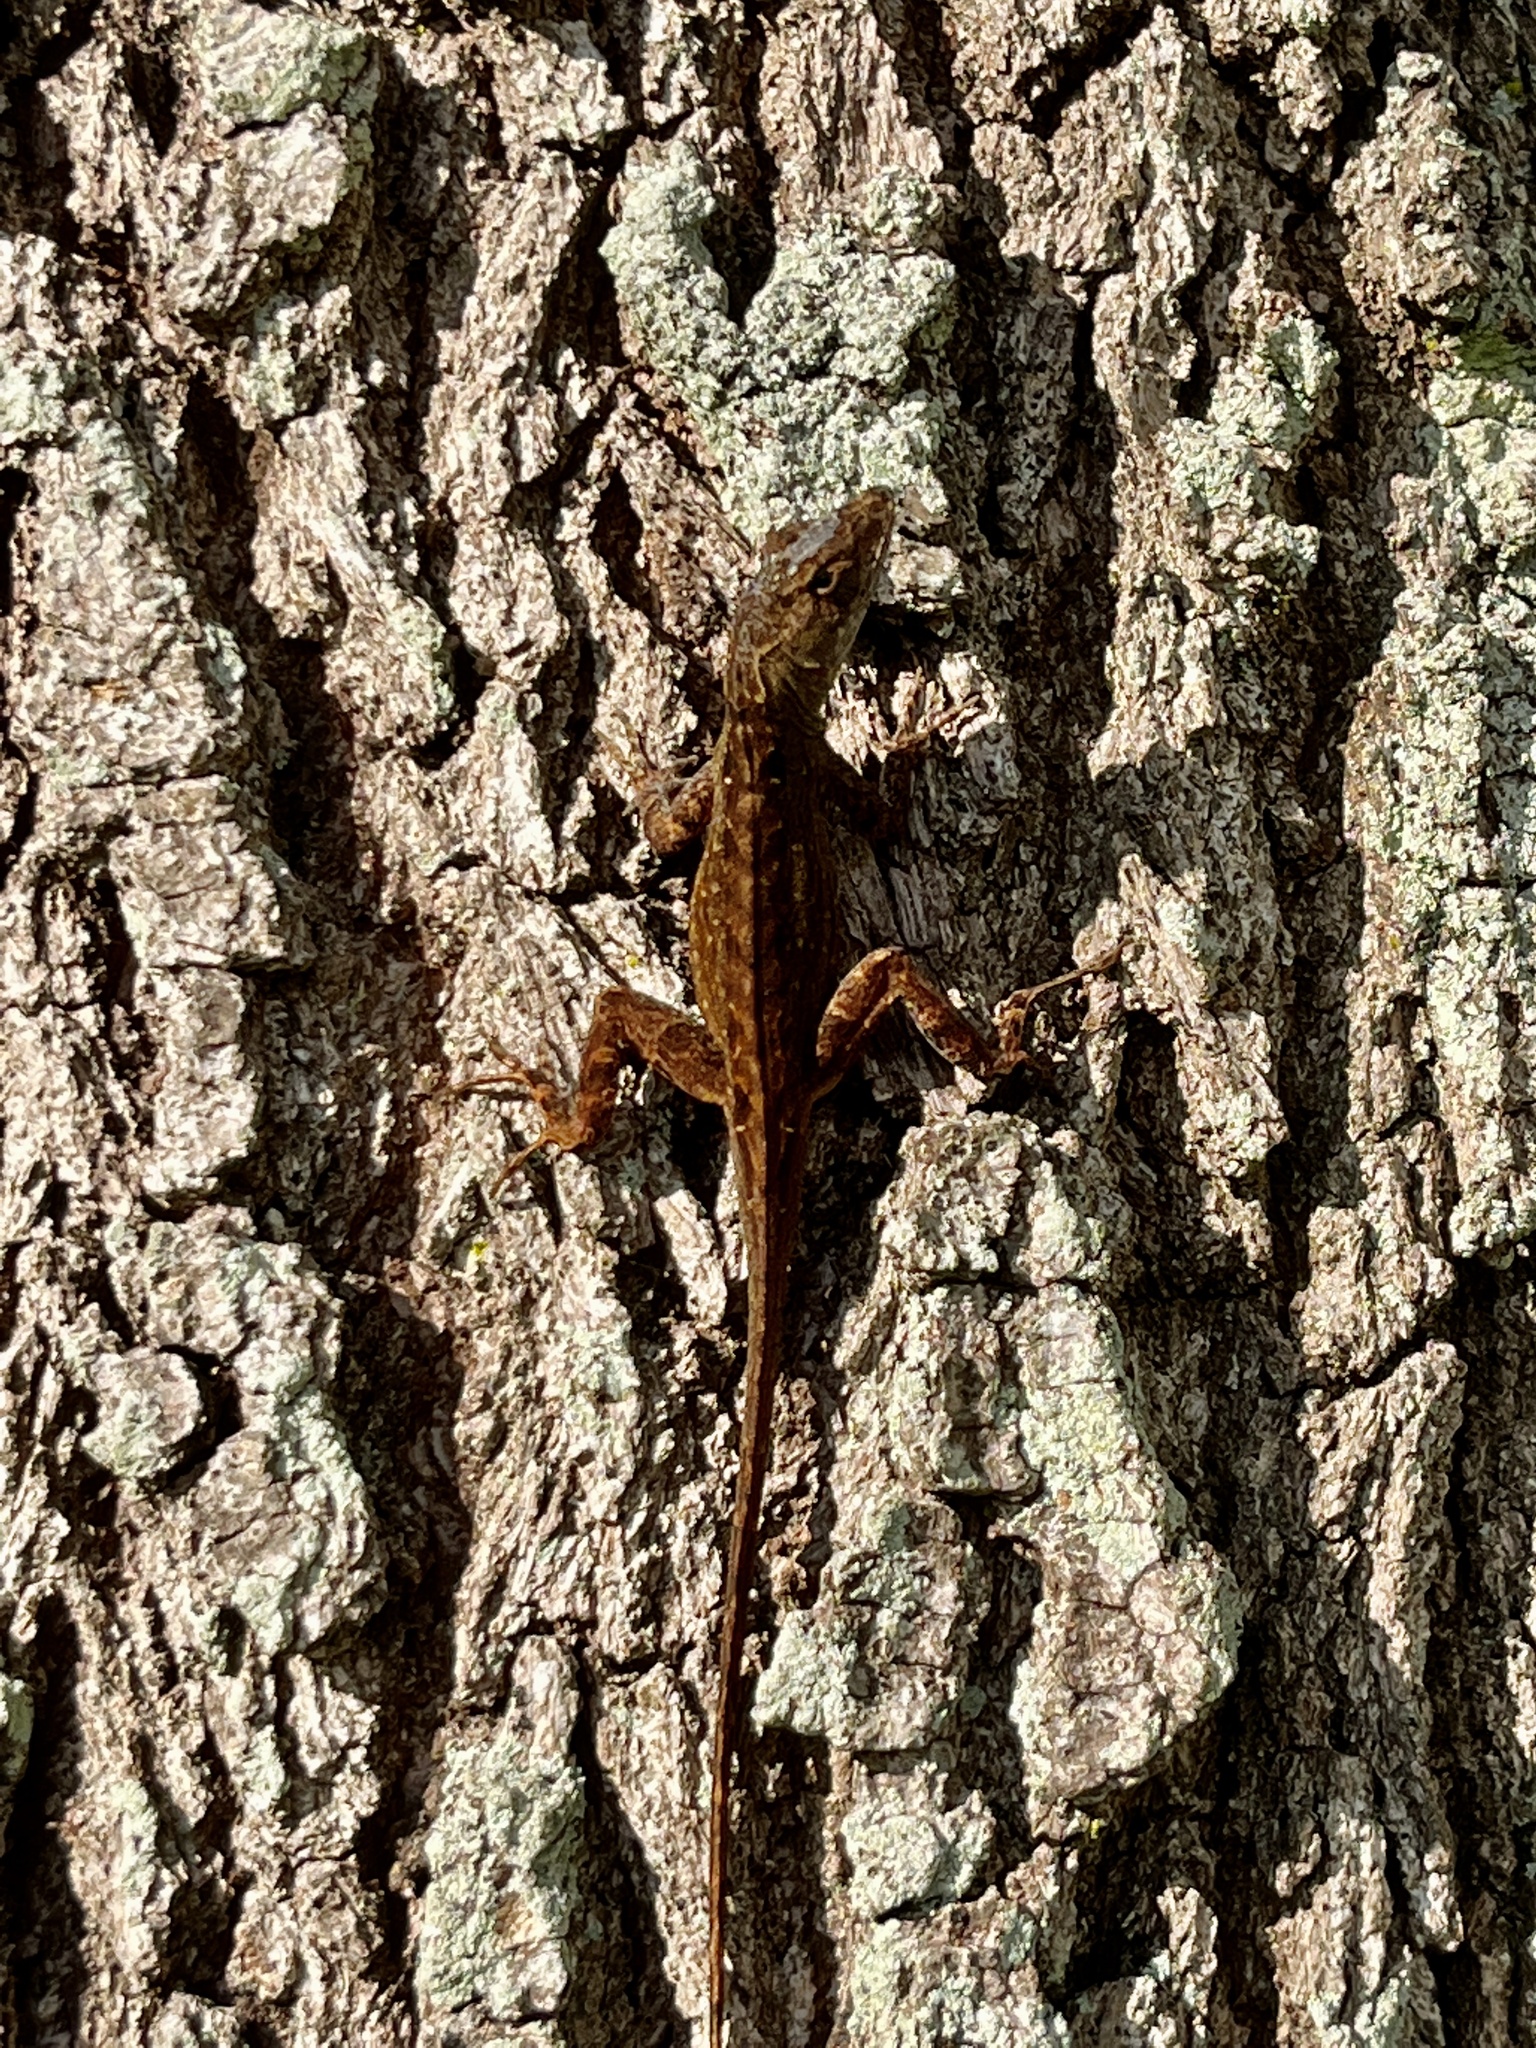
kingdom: Animalia
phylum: Chordata
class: Squamata
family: Dactyloidae
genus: Anolis
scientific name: Anolis sagrei
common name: Brown anole
